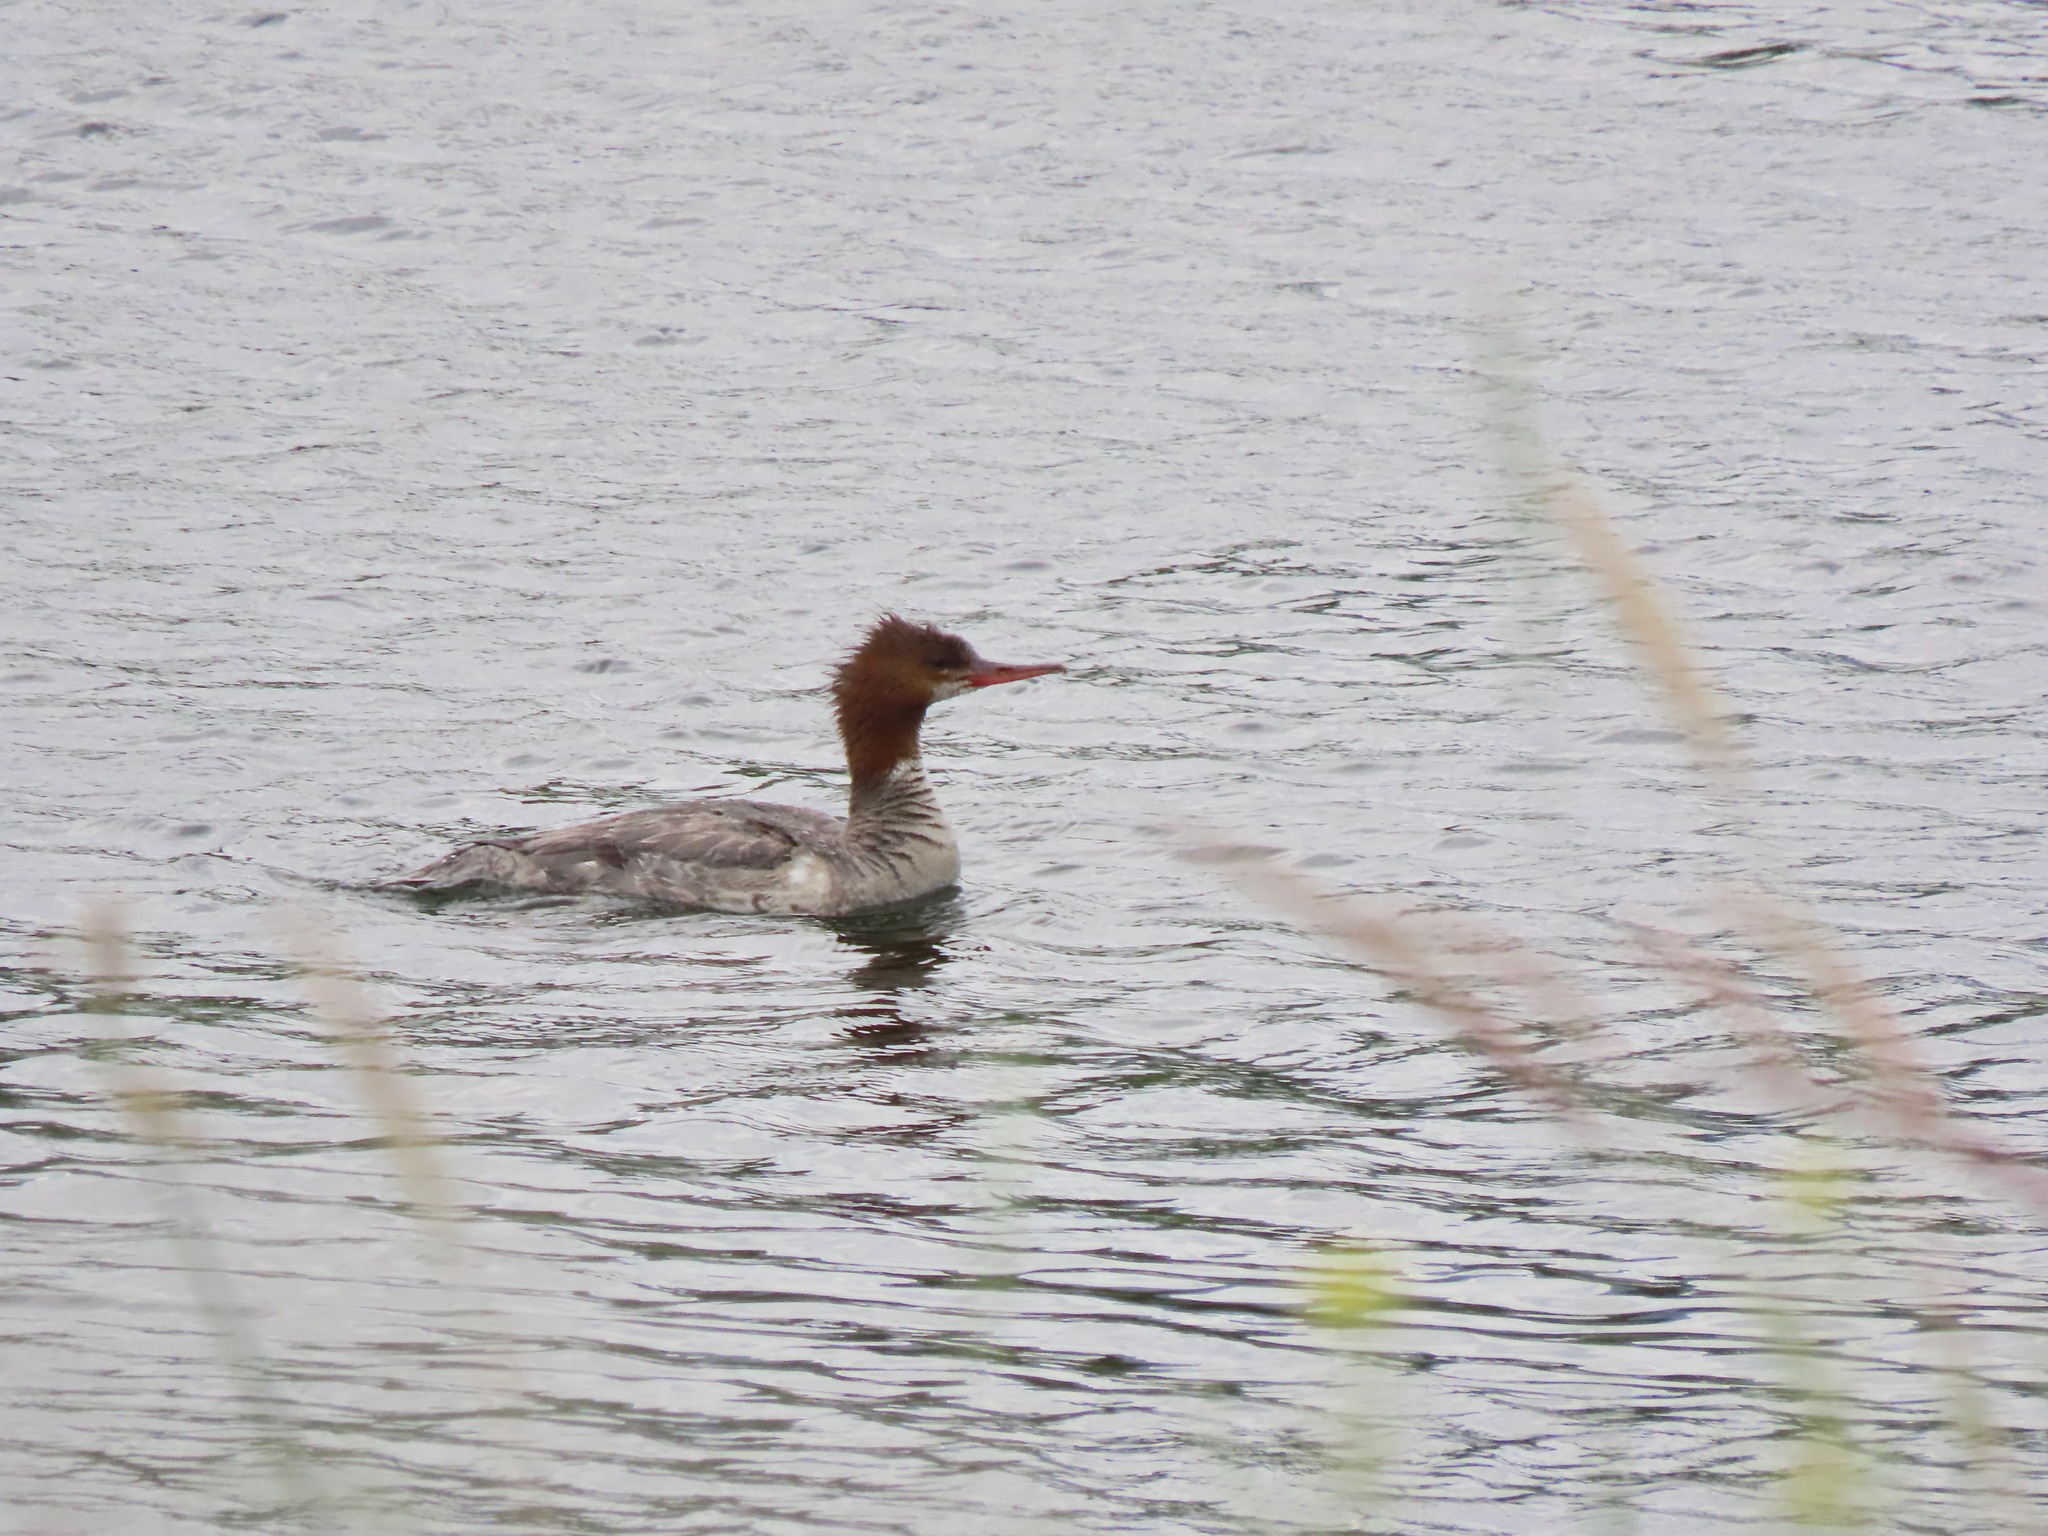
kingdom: Animalia
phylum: Chordata
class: Aves
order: Anseriformes
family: Anatidae
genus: Mergus
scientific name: Mergus merganser
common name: Common merganser
